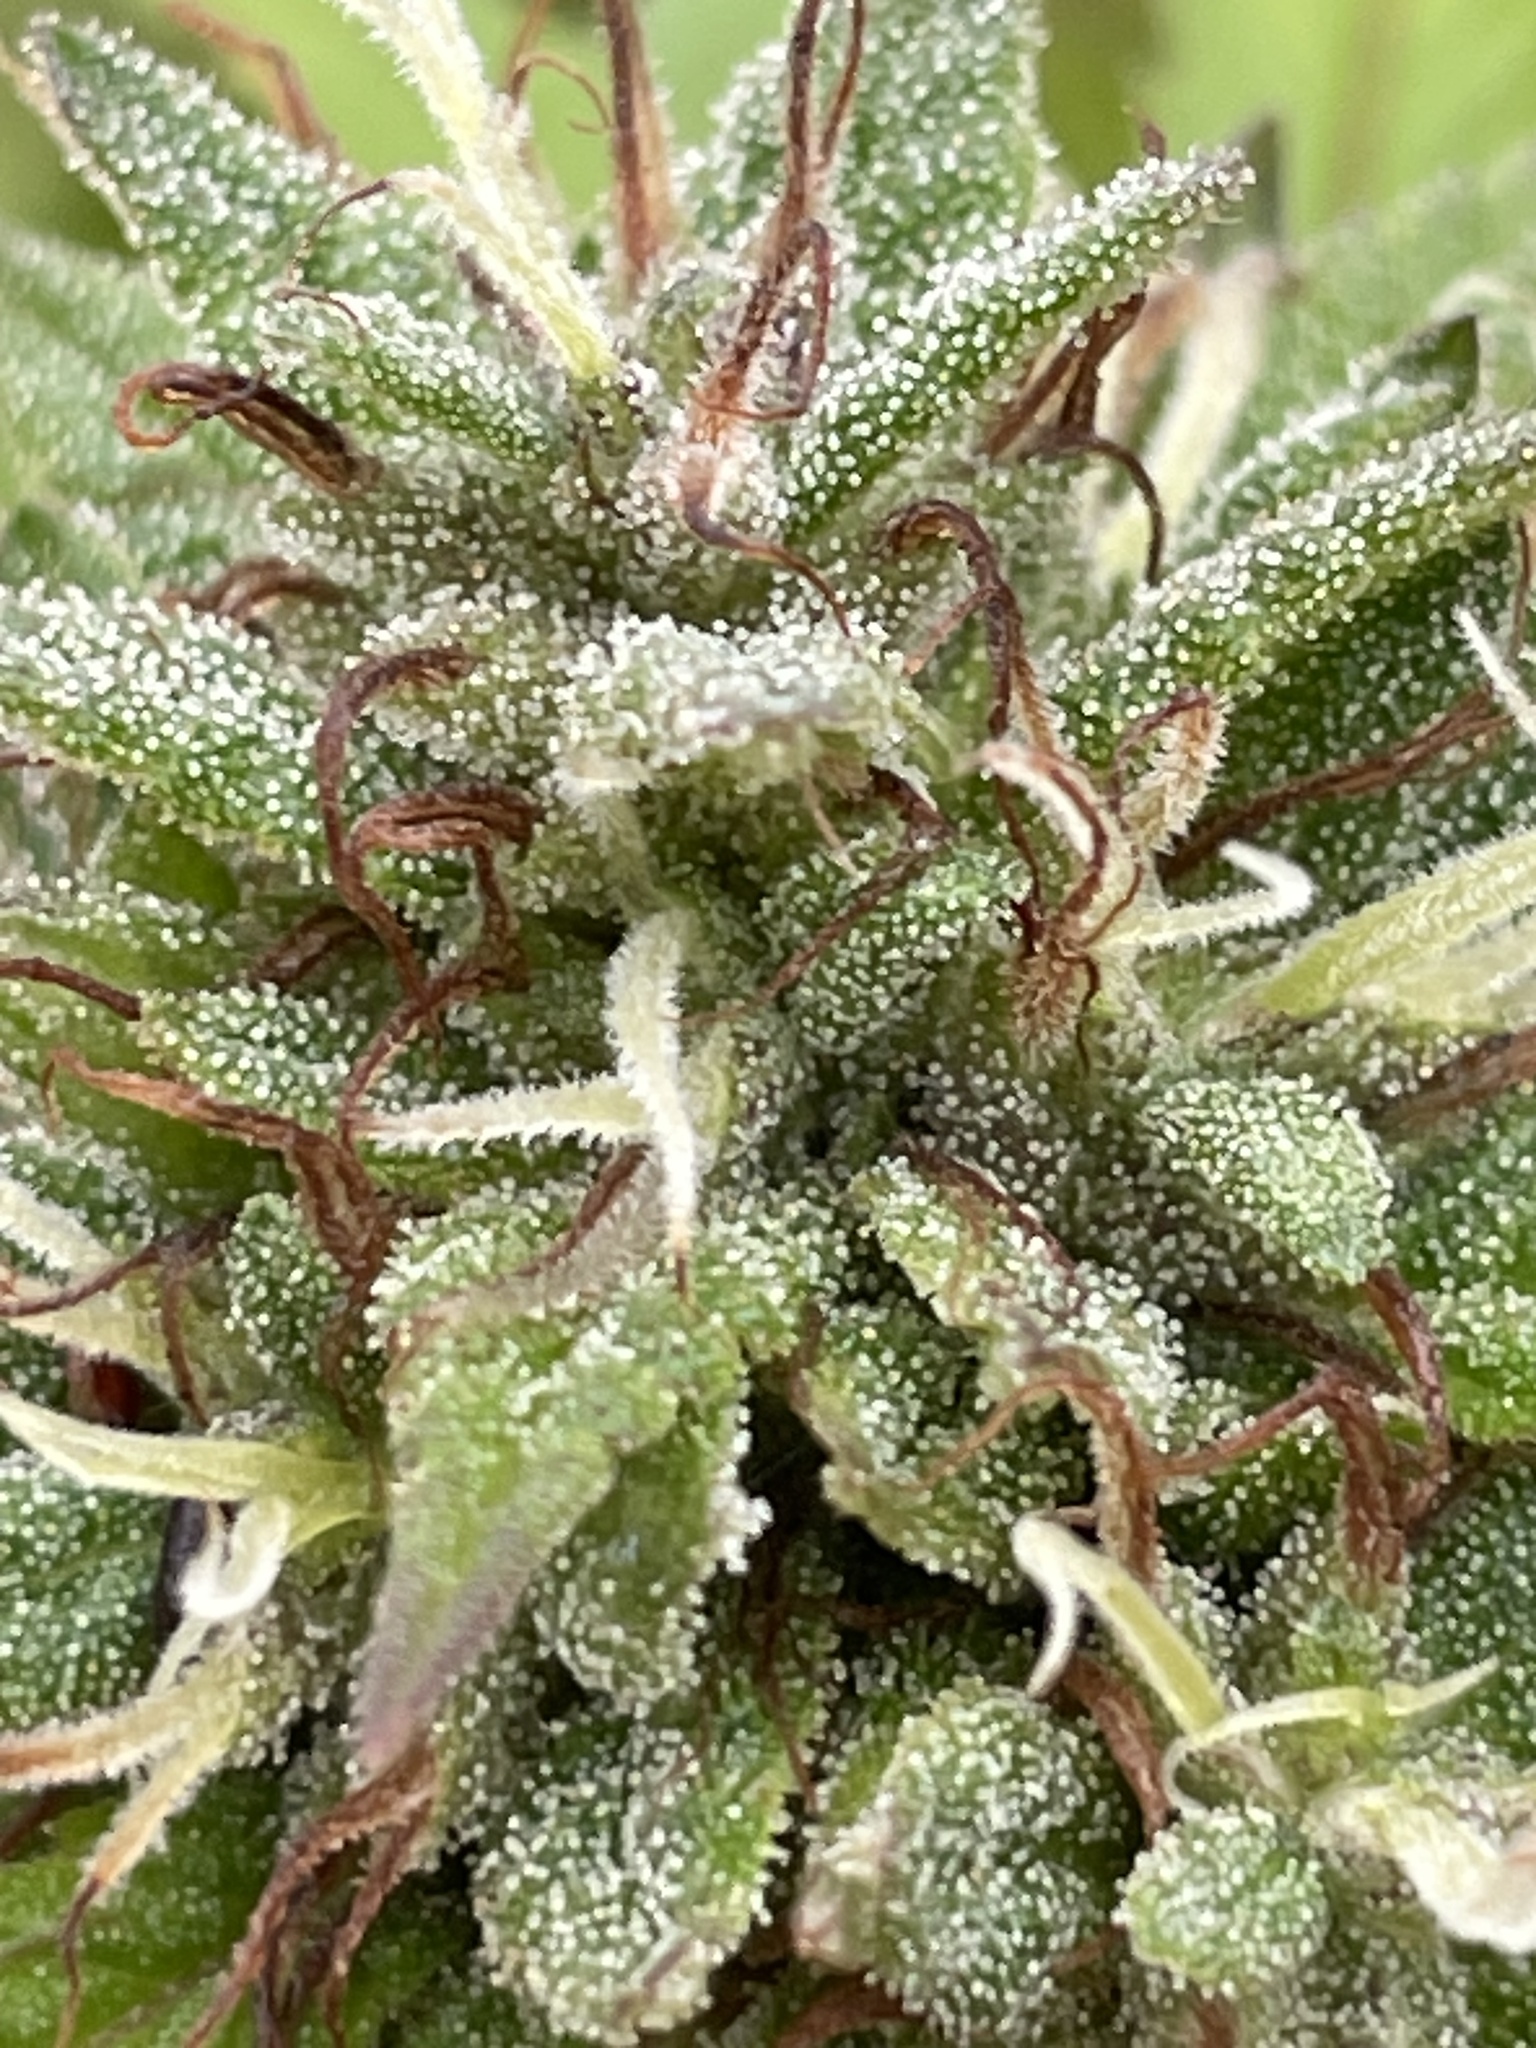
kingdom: Plantae
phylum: Tracheophyta
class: Magnoliopsida
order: Rosales
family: Cannabaceae
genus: Cannabis
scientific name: Cannabis sativa
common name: Hemp
